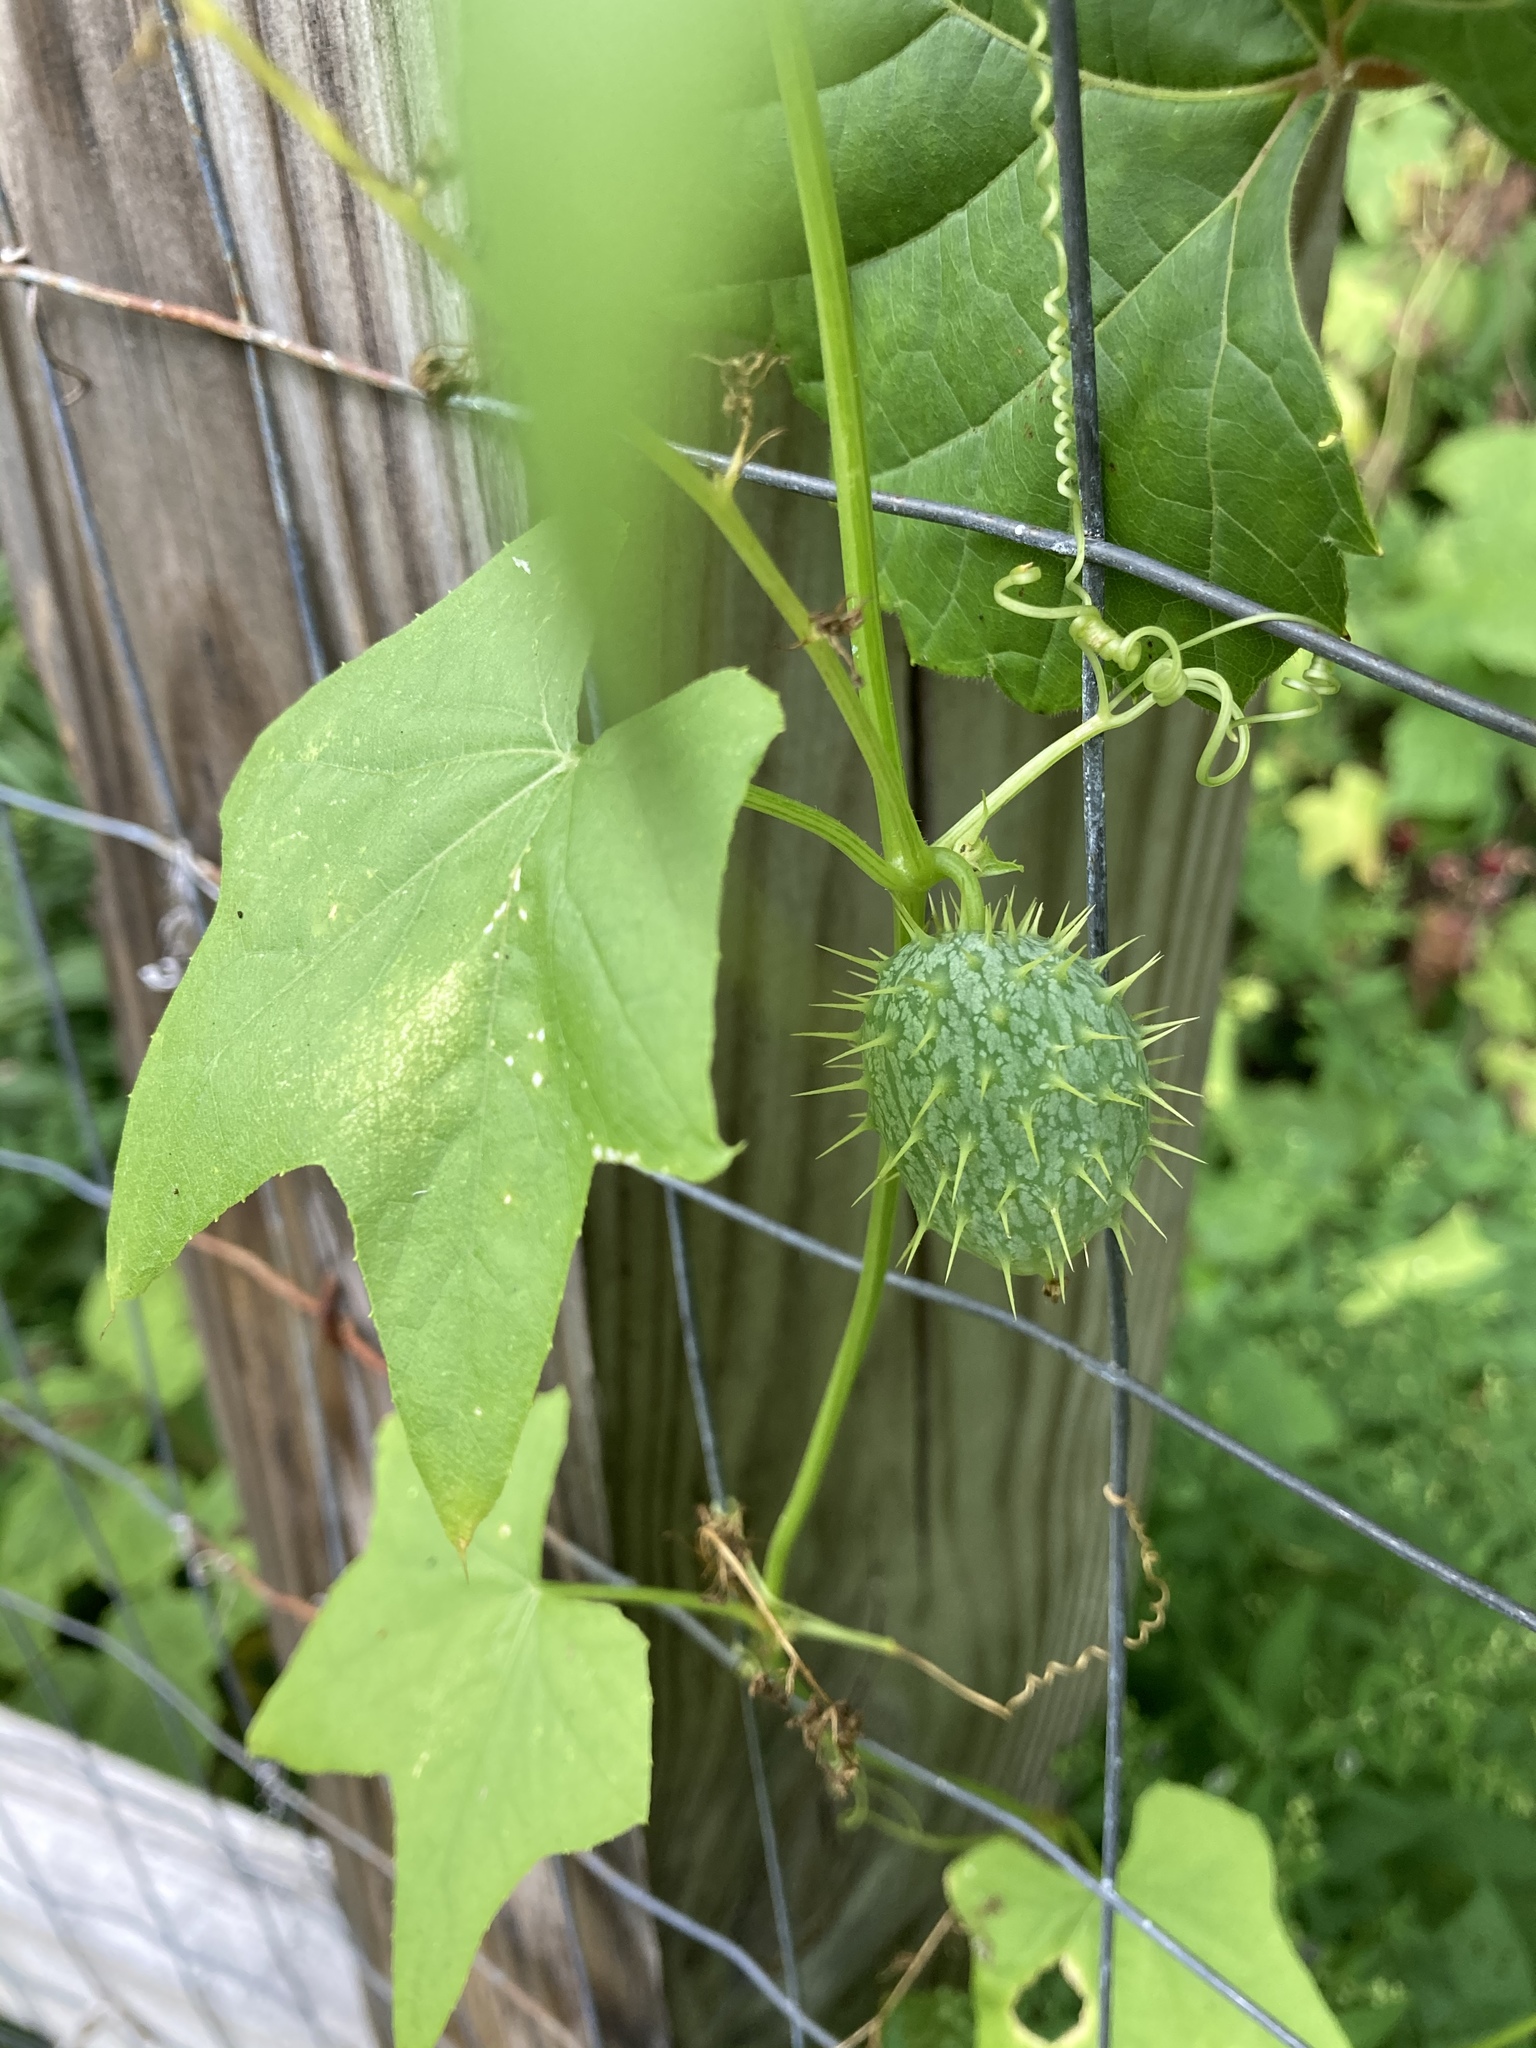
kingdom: Plantae
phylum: Tracheophyta
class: Magnoliopsida
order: Cucurbitales
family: Cucurbitaceae
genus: Echinocystis
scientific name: Echinocystis lobata
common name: Wild cucumber
